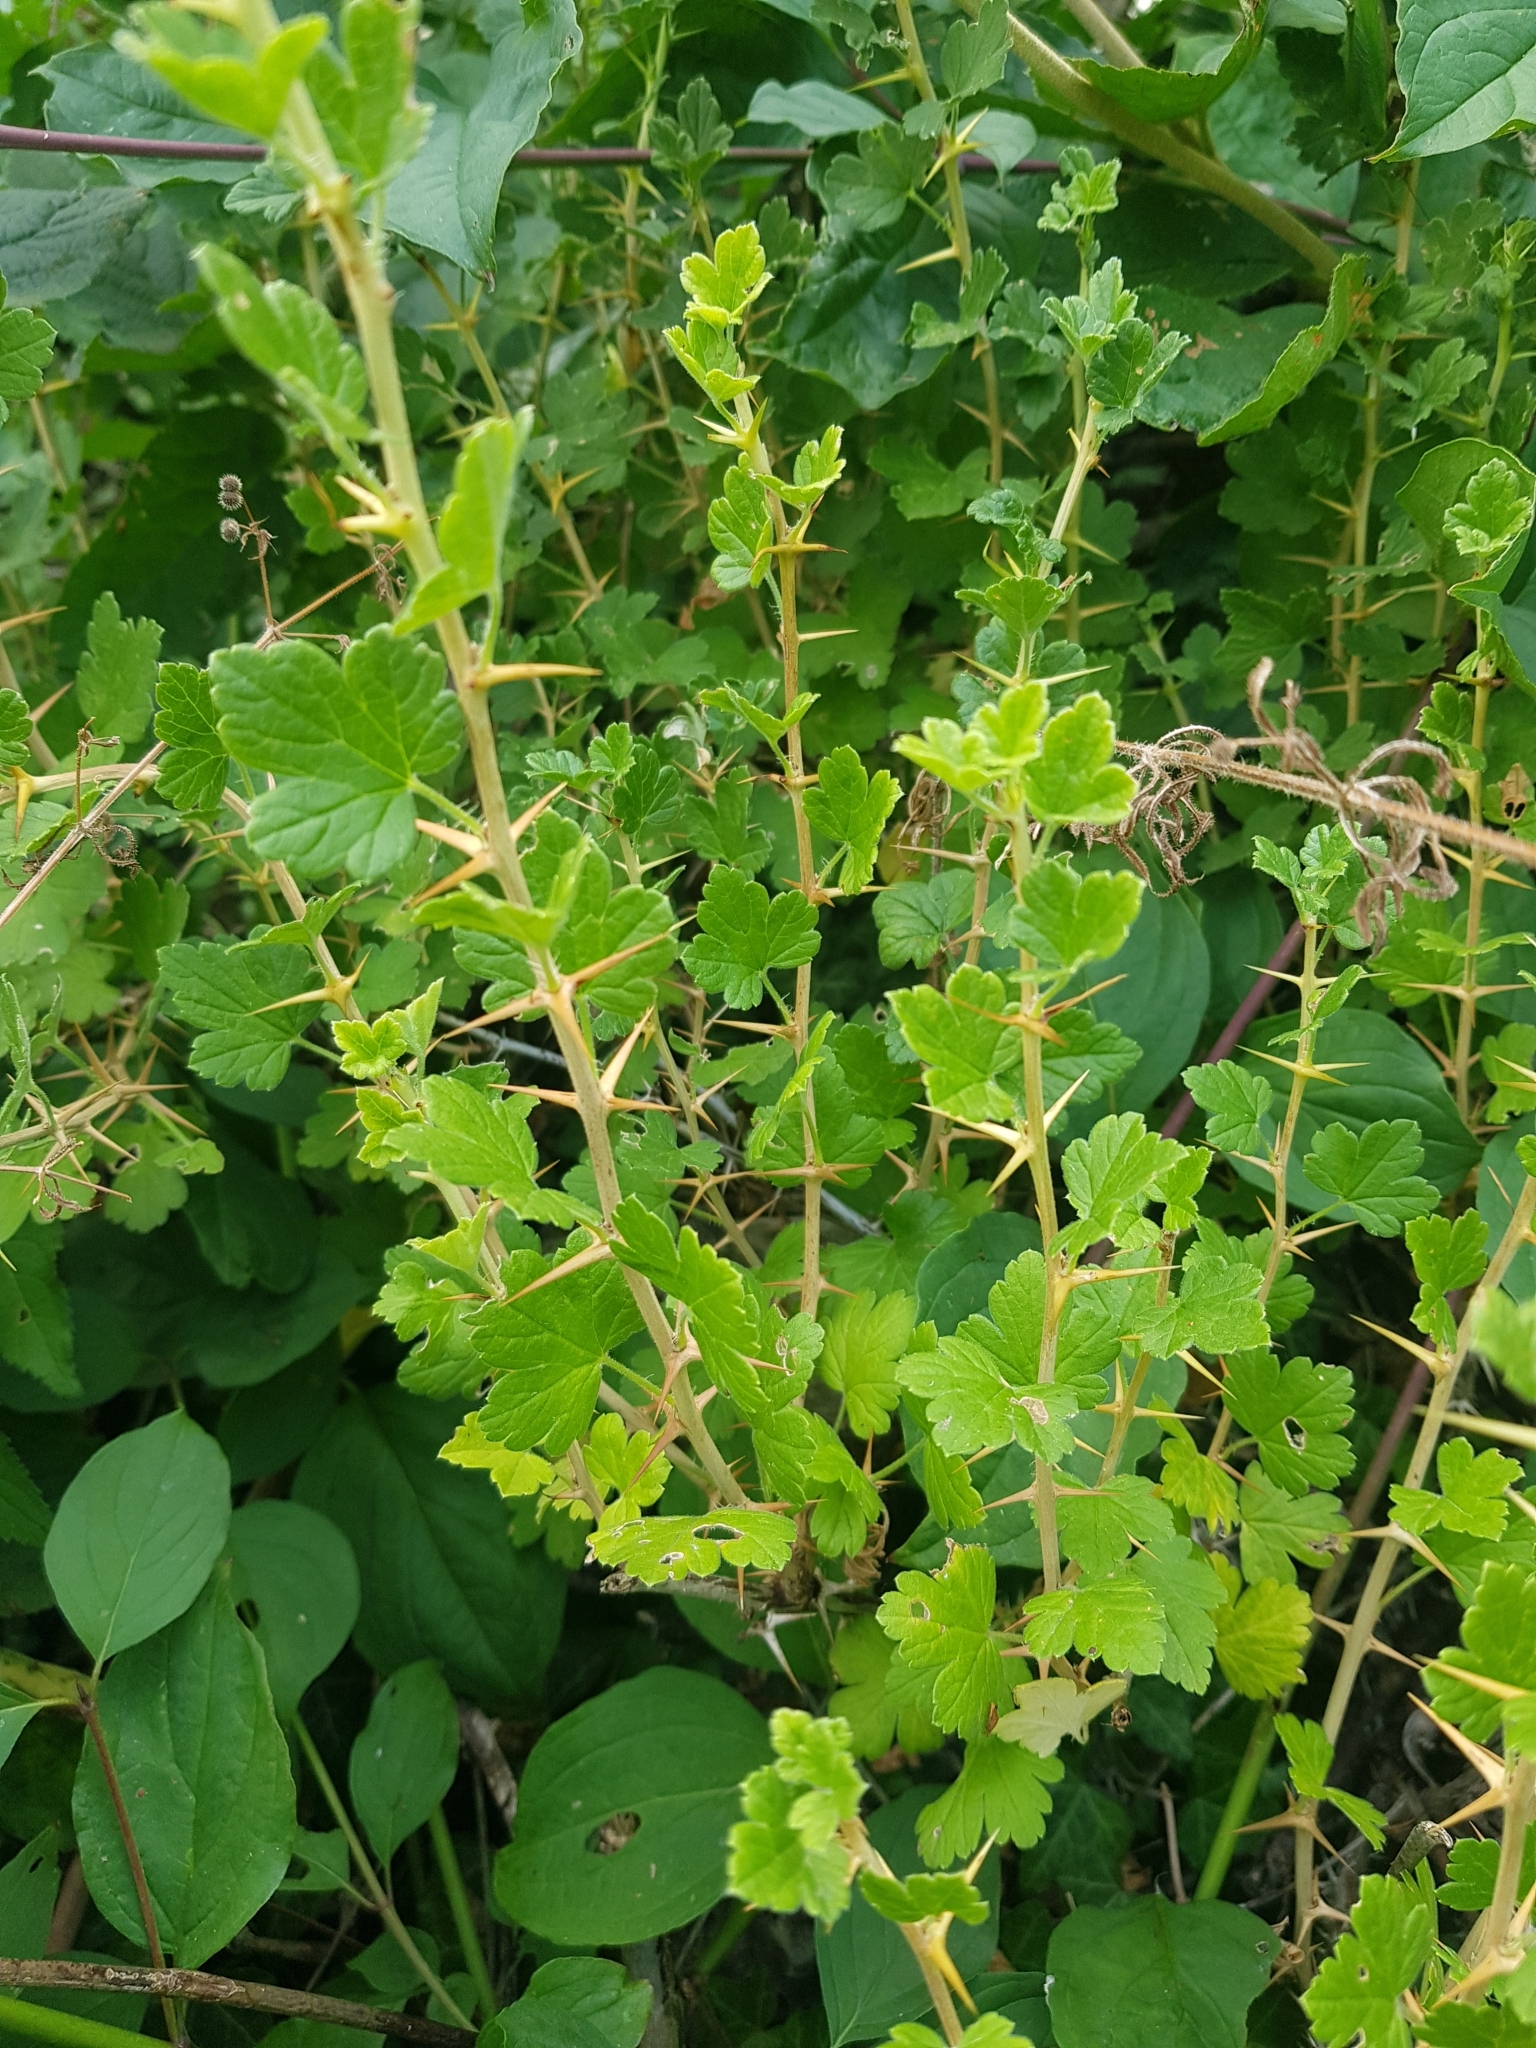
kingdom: Plantae
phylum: Tracheophyta
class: Magnoliopsida
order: Saxifragales
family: Grossulariaceae
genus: Ribes
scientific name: Ribes uva-crispa
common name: Gooseberry
